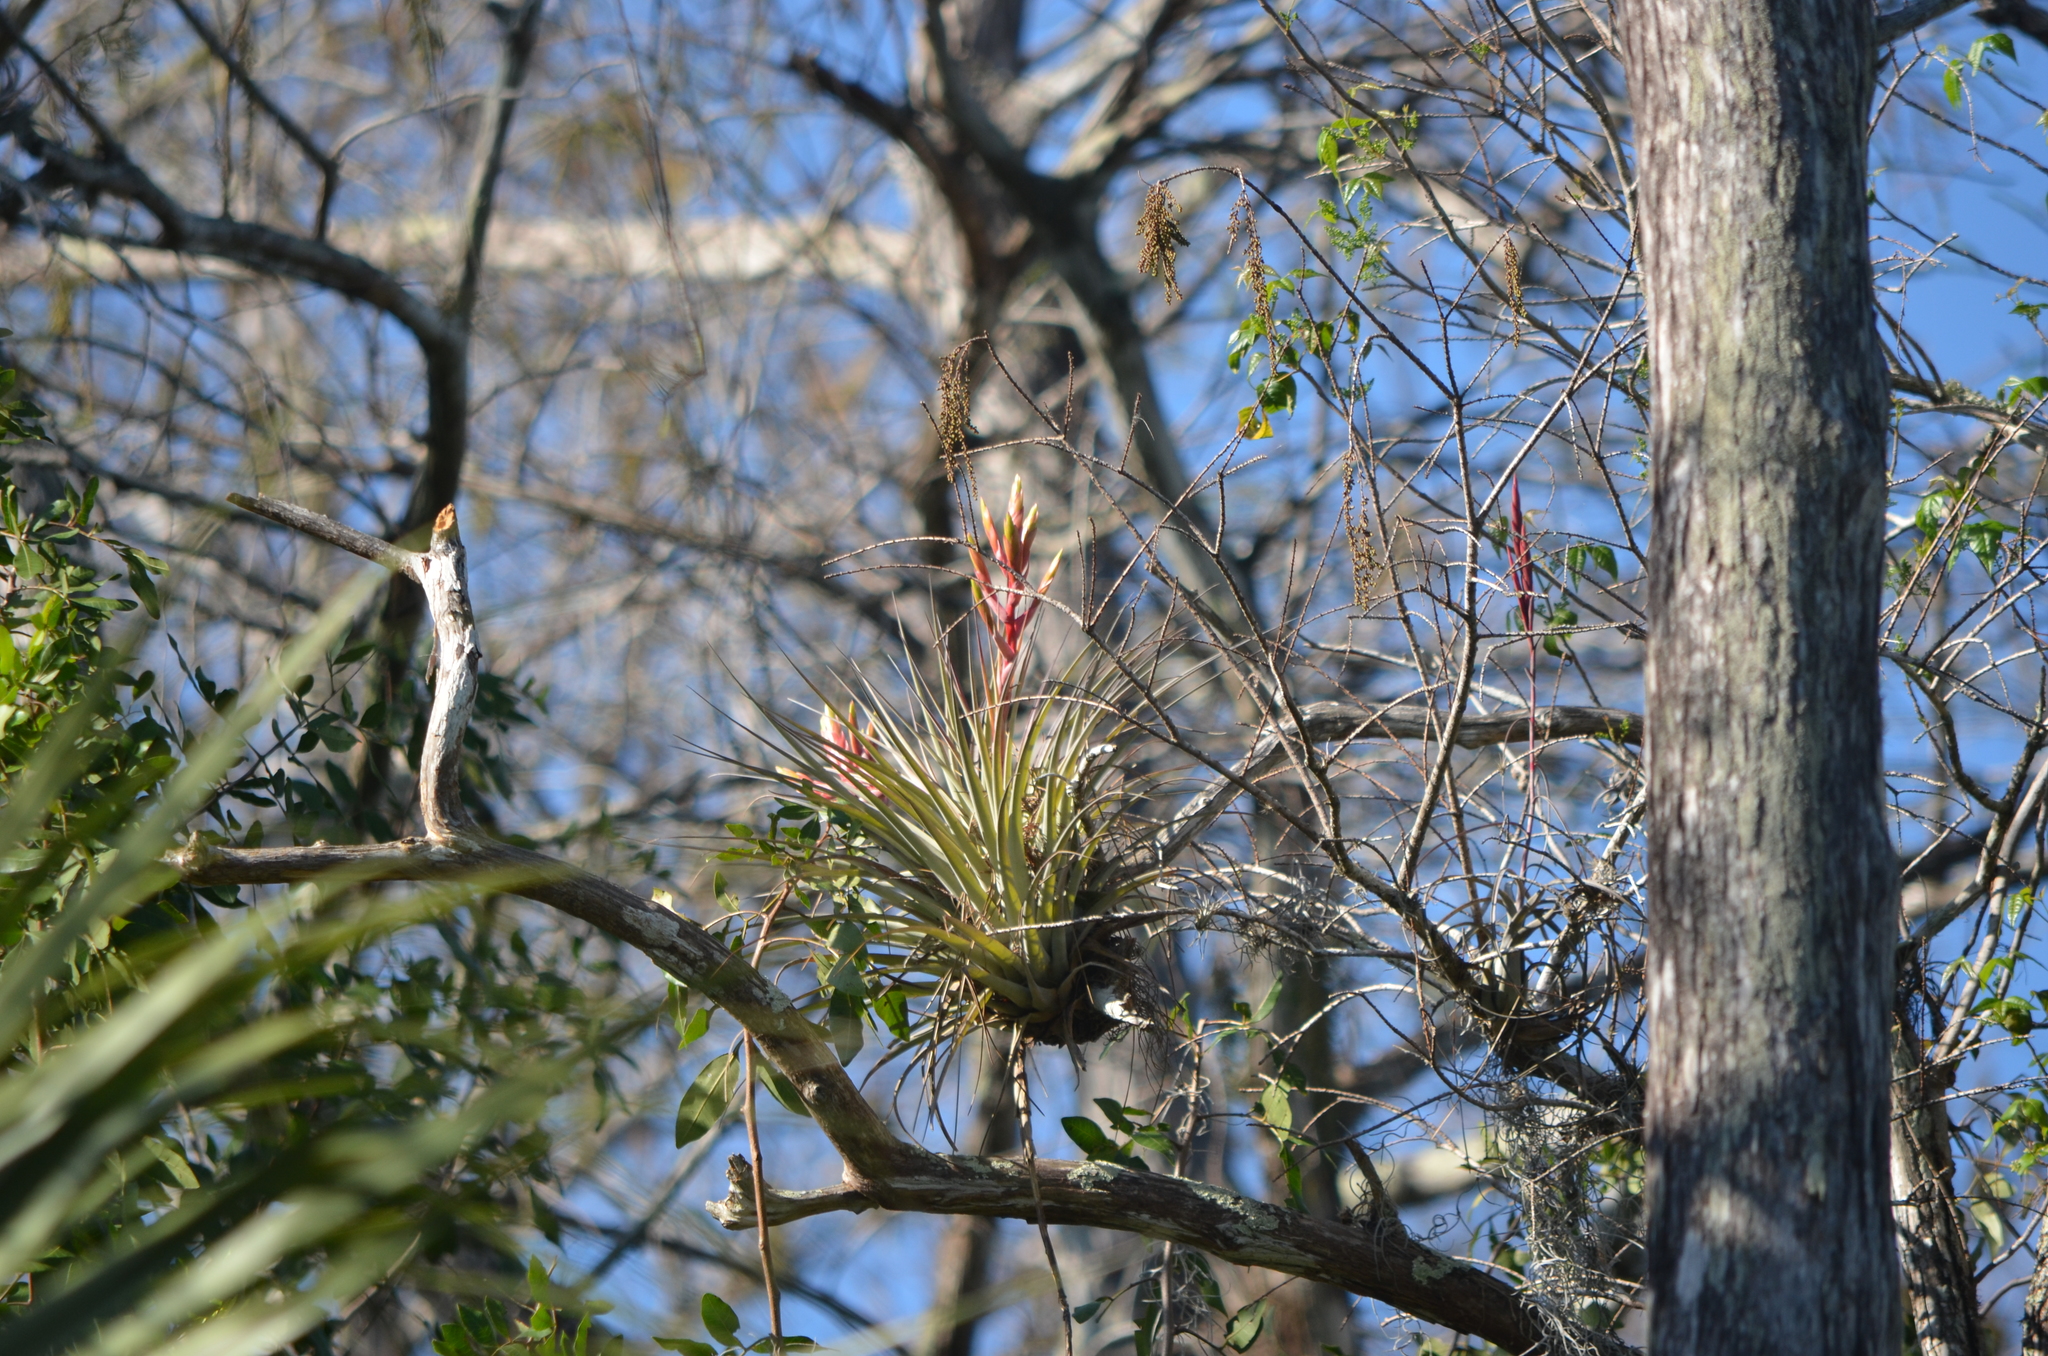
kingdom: Plantae
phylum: Tracheophyta
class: Liliopsida
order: Poales
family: Bromeliaceae
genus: Tillandsia
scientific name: Tillandsia fasciculata
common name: Giant airplant
